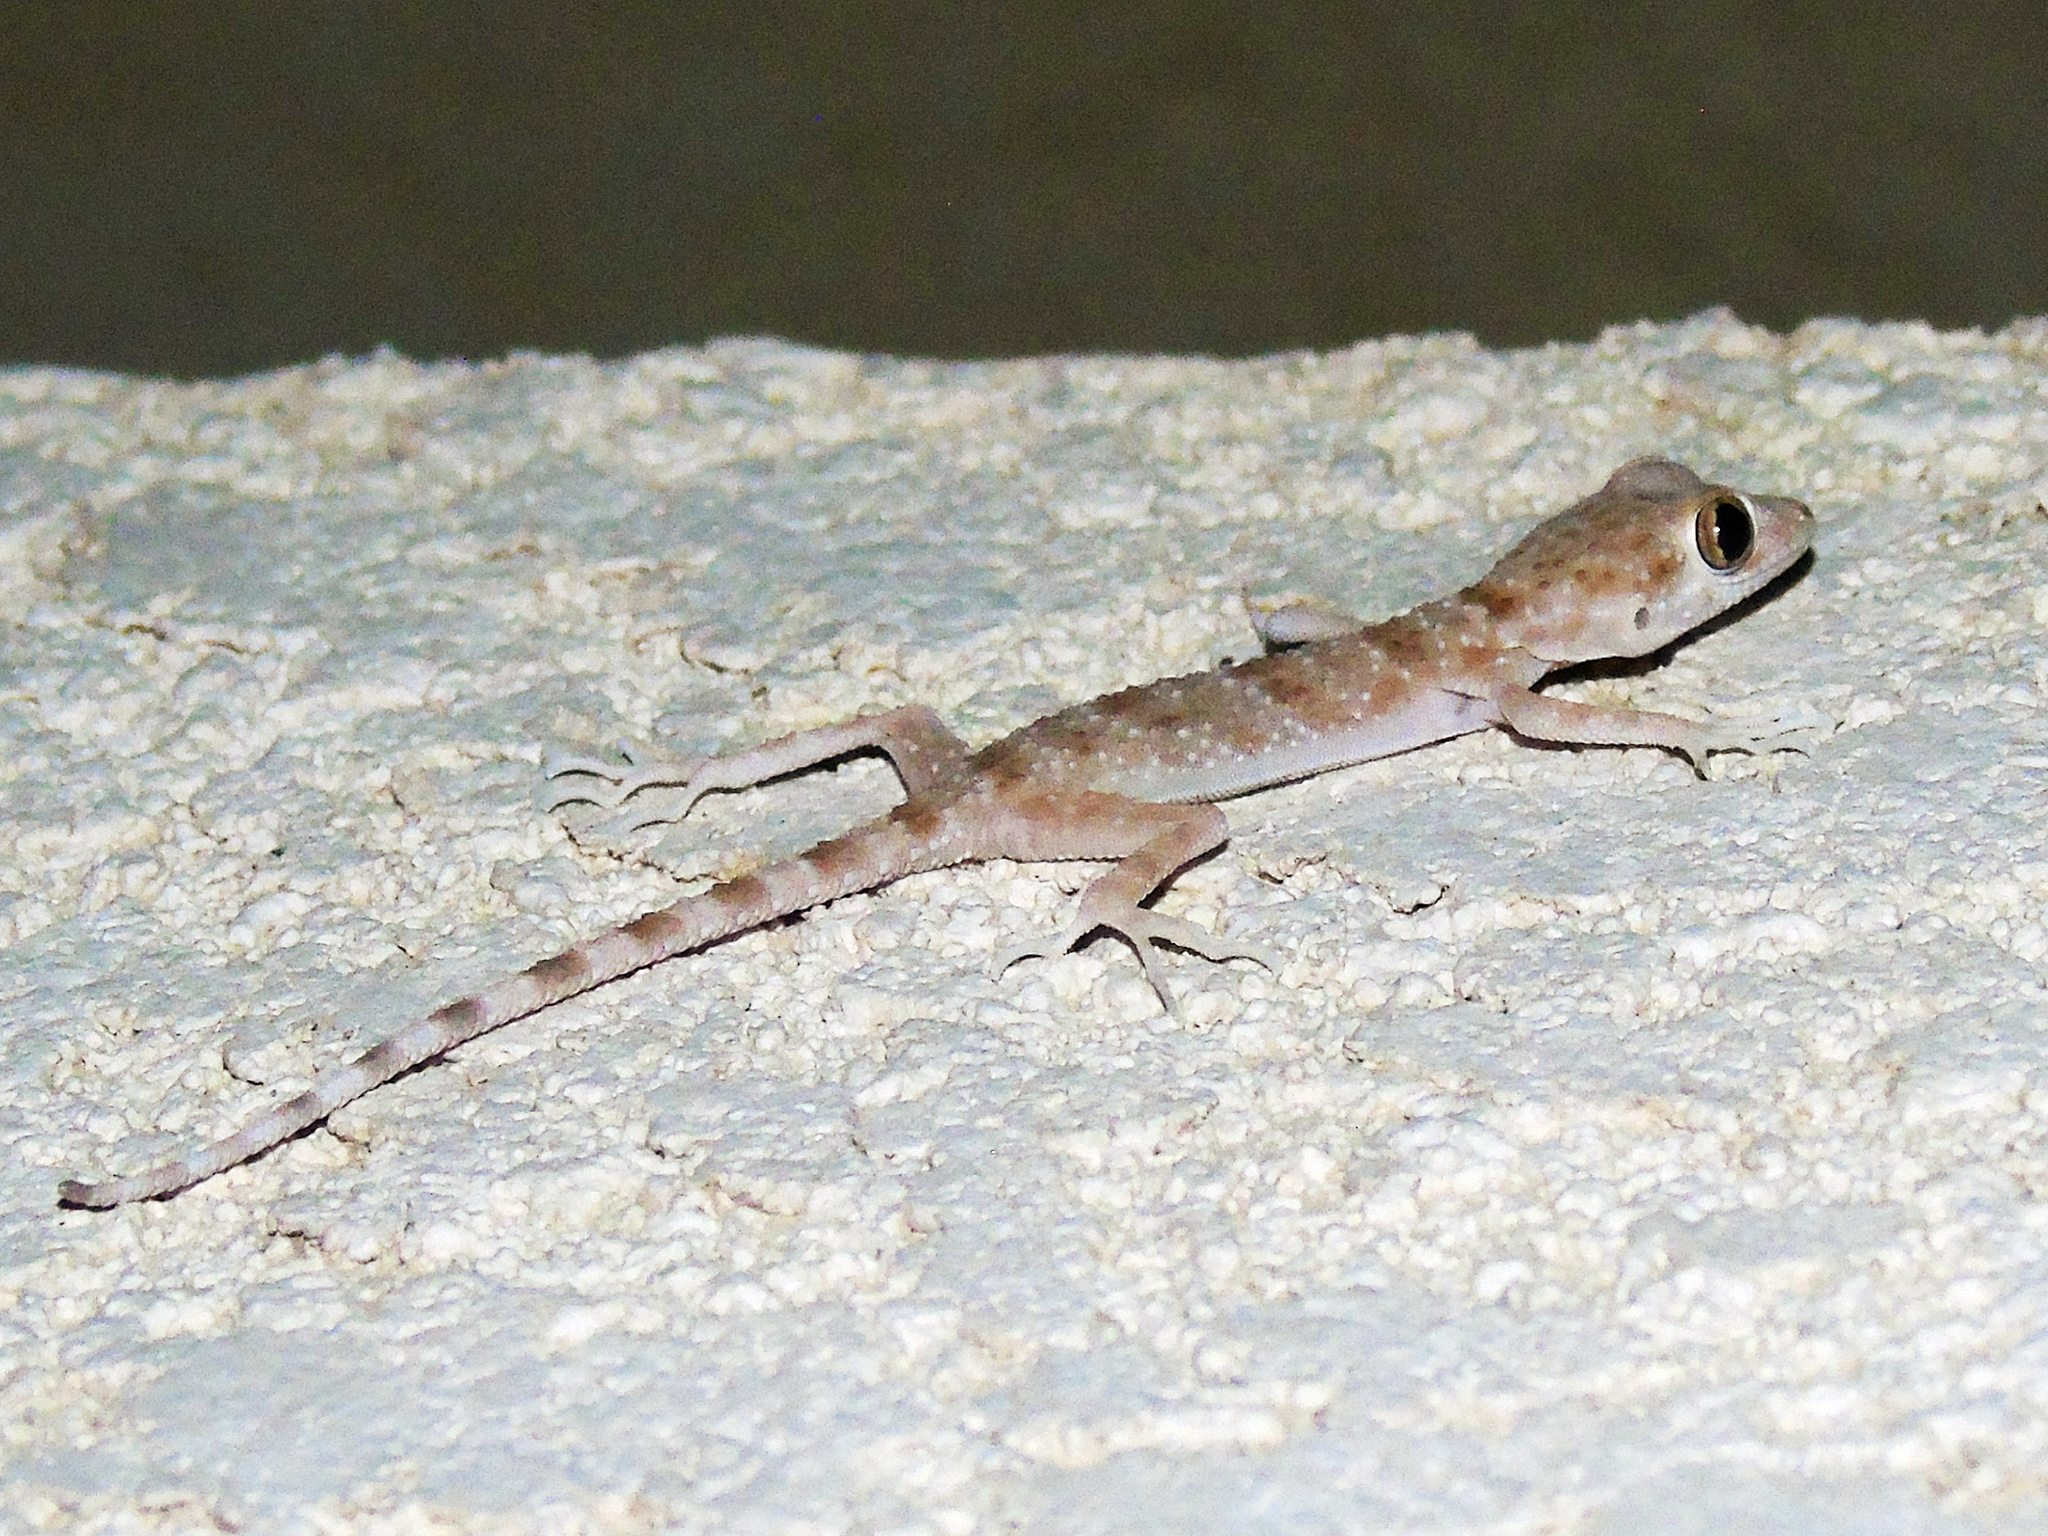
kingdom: Animalia
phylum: Chordata
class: Squamata
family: Gekkonidae
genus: Tenuidactylus
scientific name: Tenuidactylus bogdanovi
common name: Bogdanov’s thin-toed gecko
